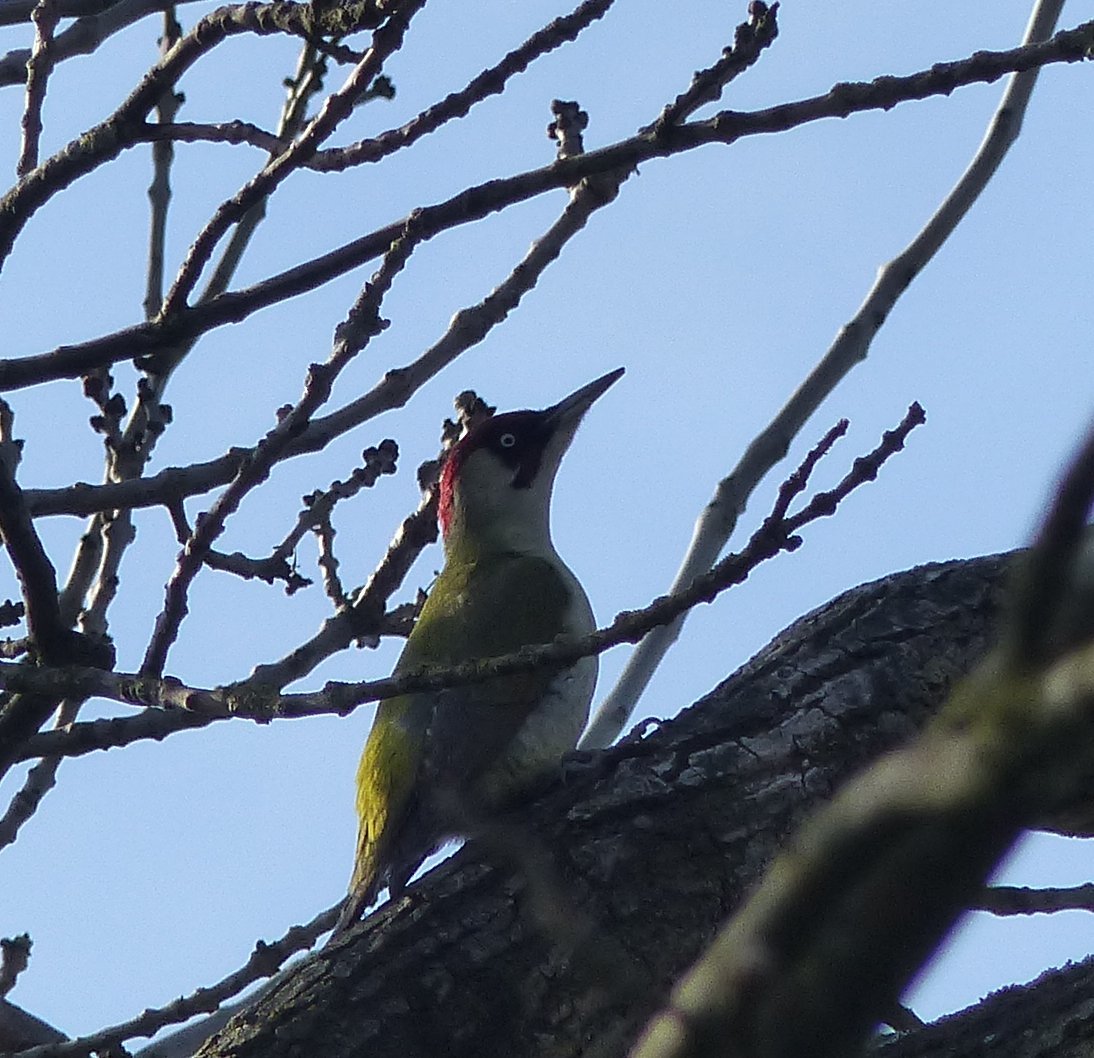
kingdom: Animalia
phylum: Chordata
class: Aves
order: Piciformes
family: Picidae
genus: Picus
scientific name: Picus viridis
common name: European green woodpecker
